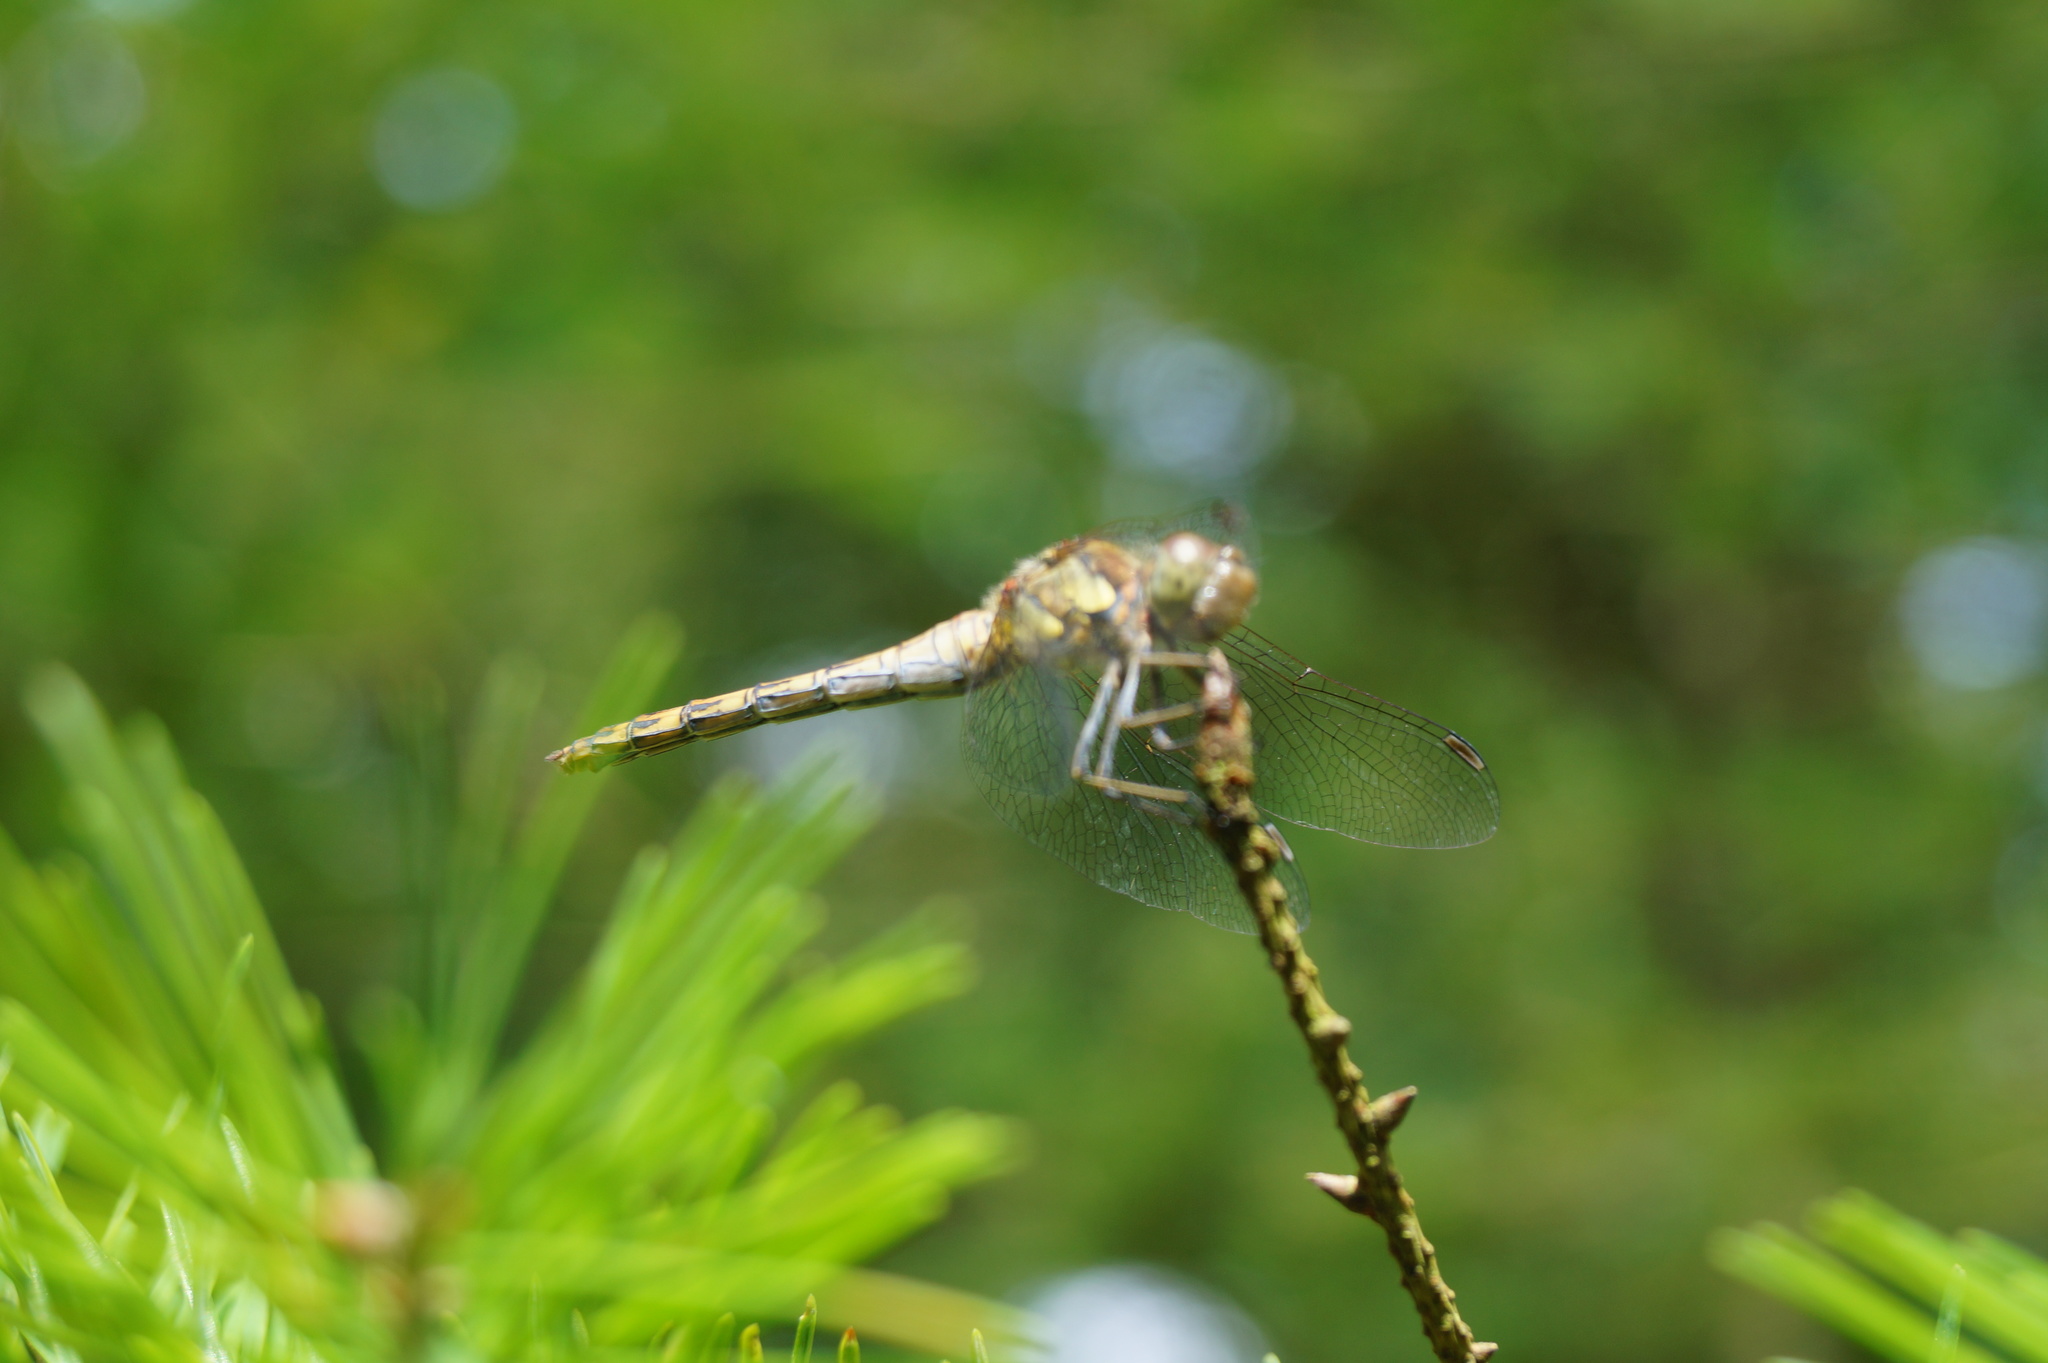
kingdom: Animalia
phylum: Arthropoda
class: Insecta
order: Odonata
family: Libellulidae
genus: Sympetrum
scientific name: Sympetrum striolatum
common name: Common darter
